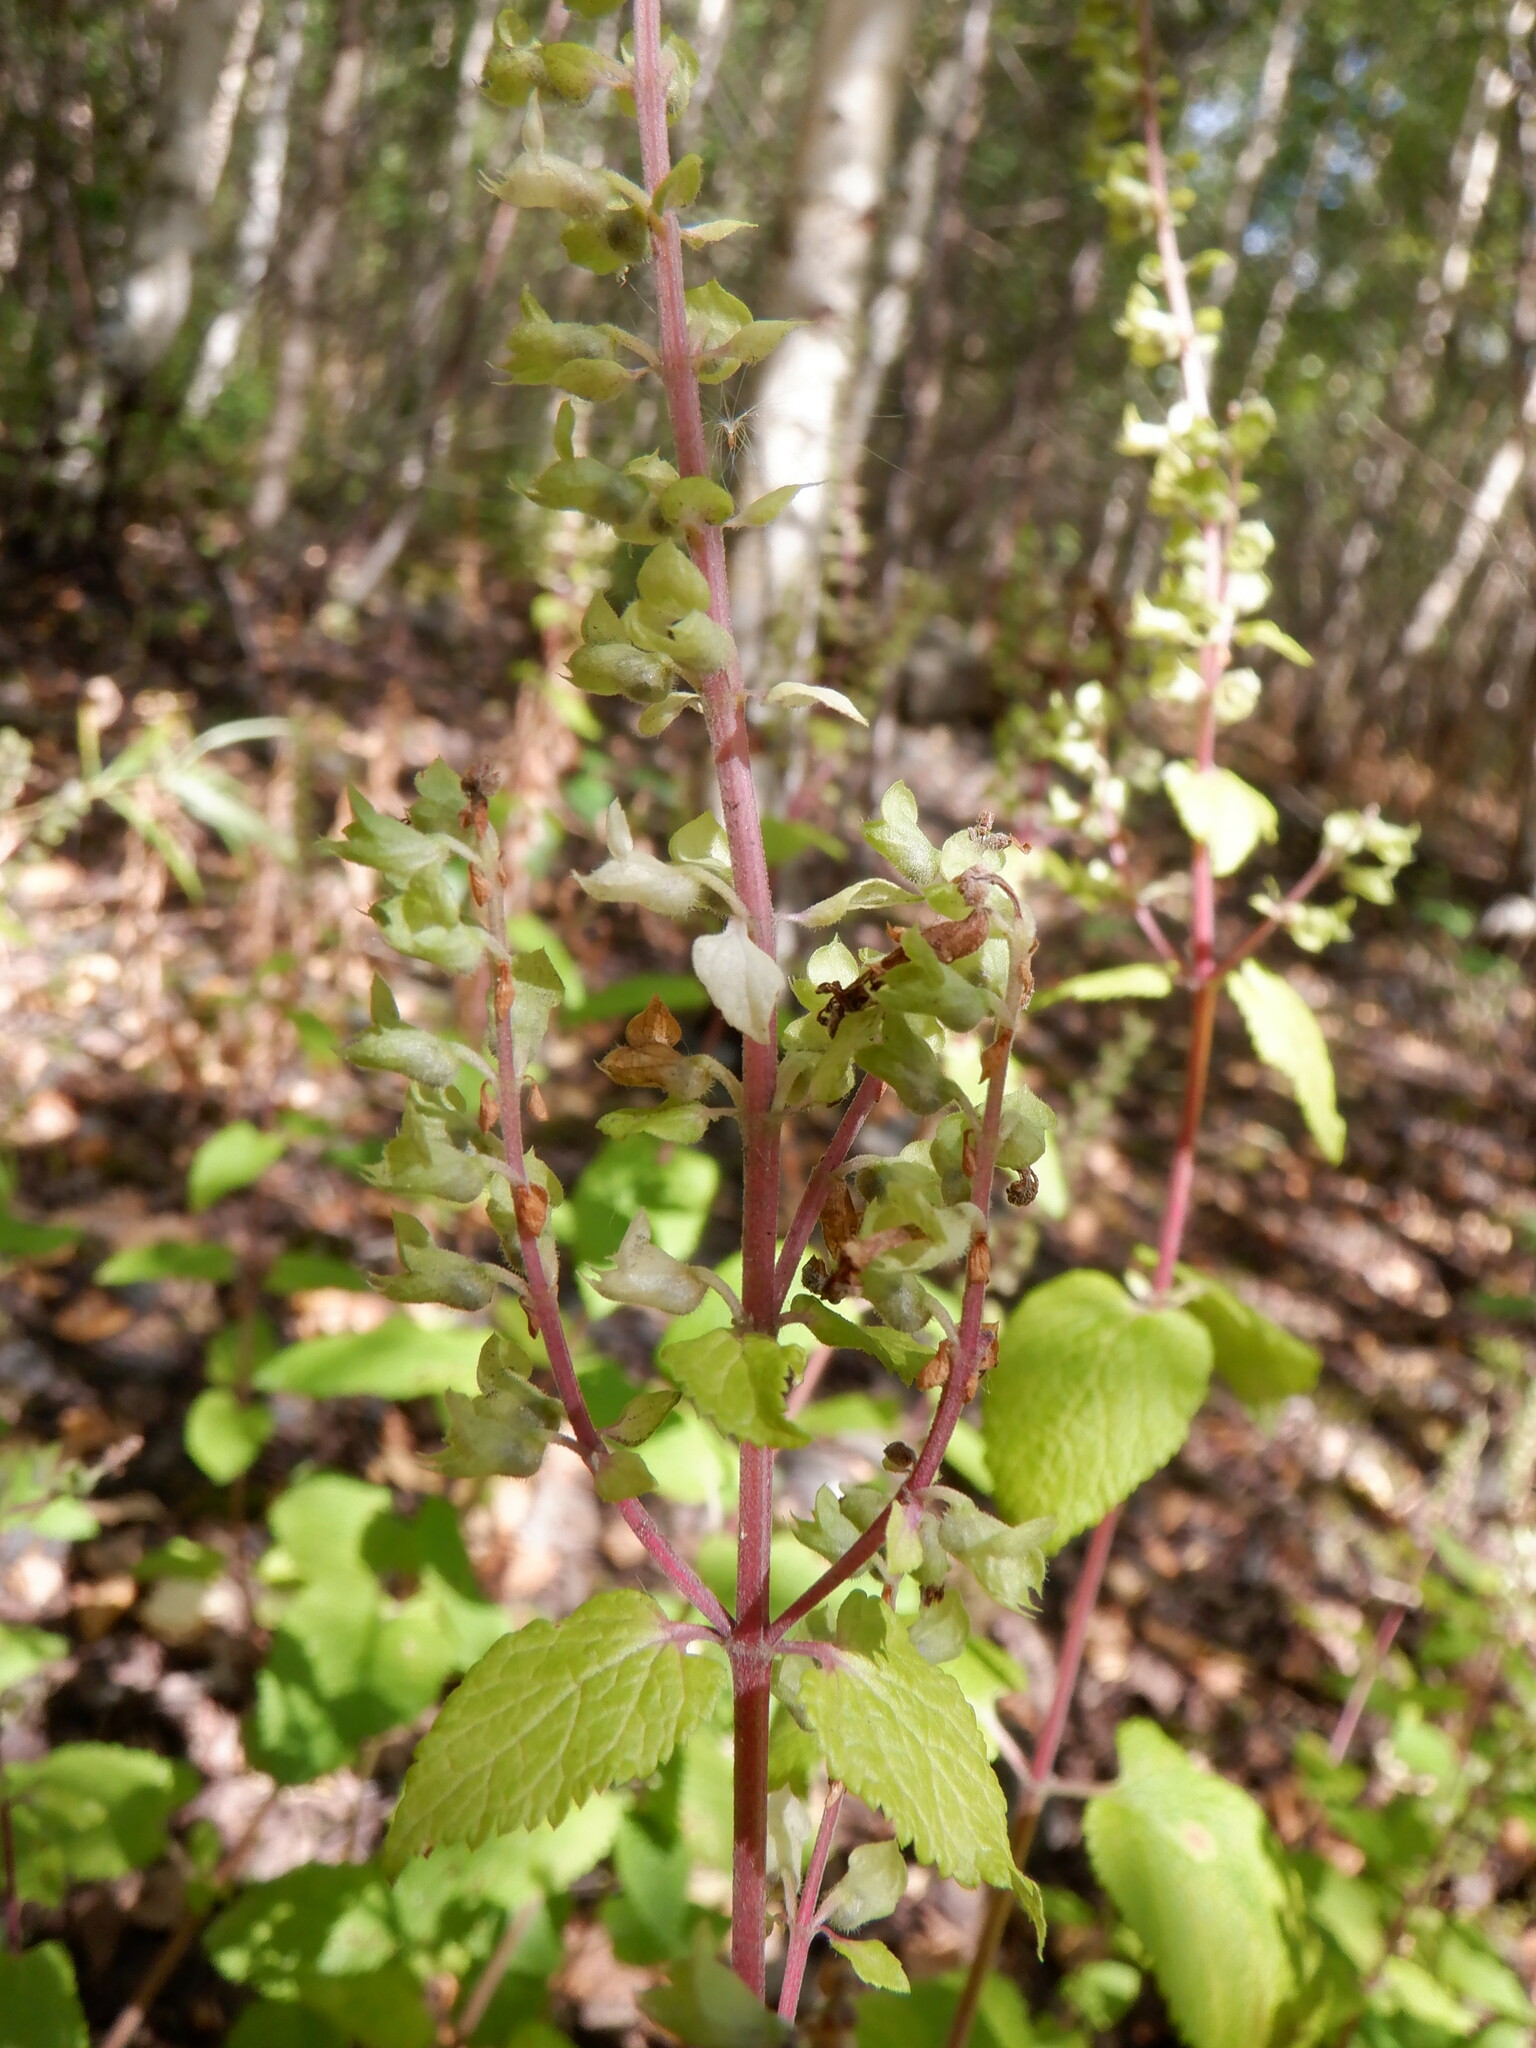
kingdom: Plantae
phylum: Tracheophyta
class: Magnoliopsida
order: Lamiales
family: Lamiaceae
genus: Teucrium
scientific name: Teucrium scorodonia
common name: Woodland germander
